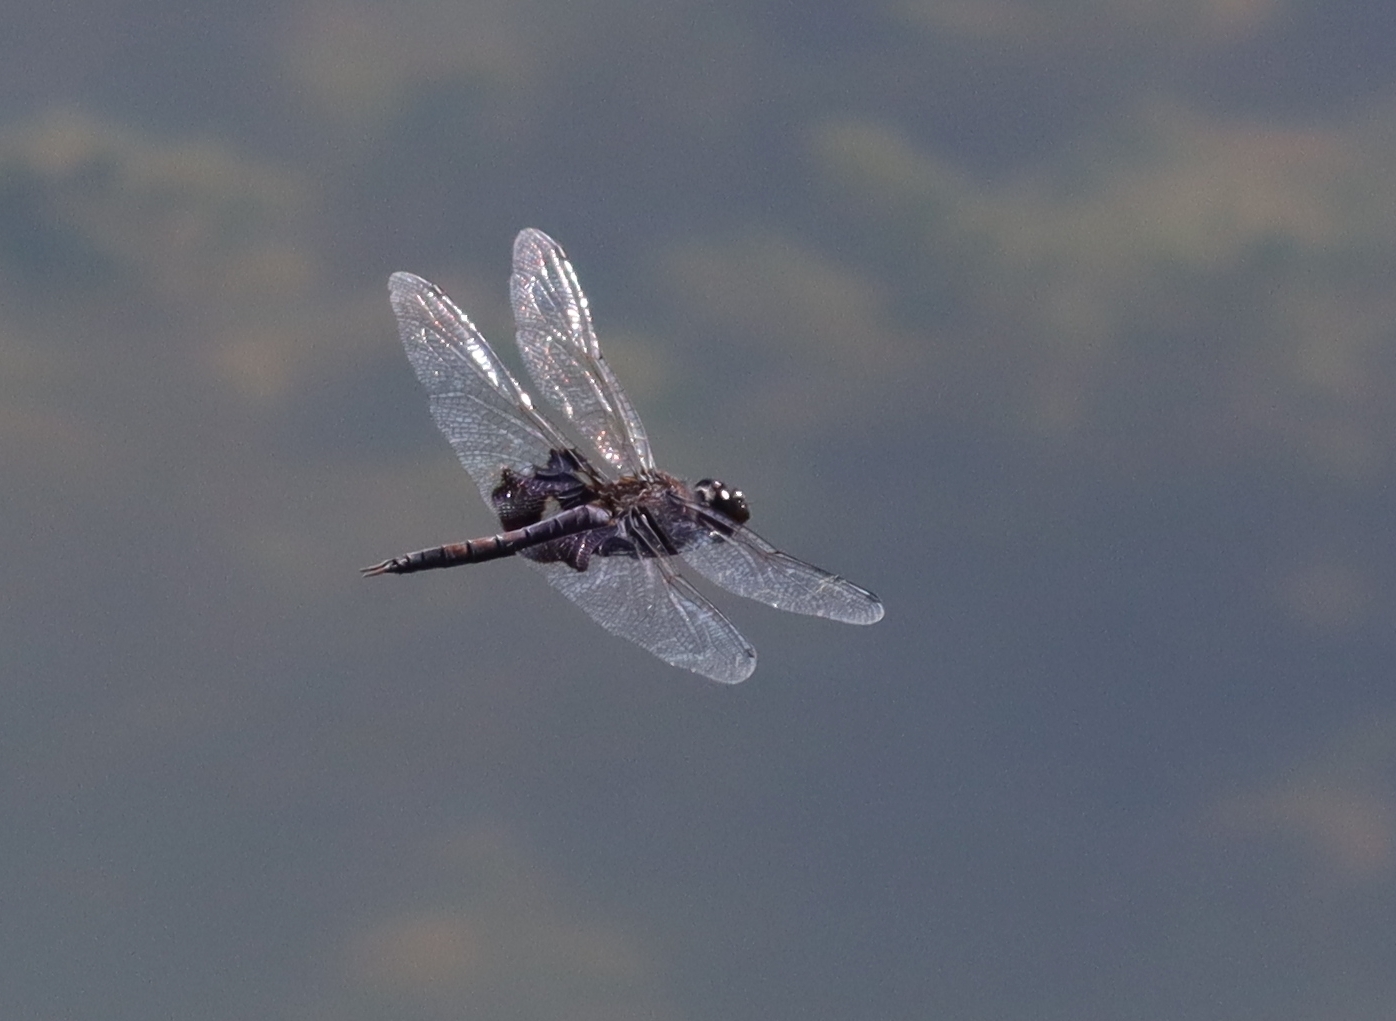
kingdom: Animalia
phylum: Arthropoda
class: Insecta
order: Odonata
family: Libellulidae
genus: Tramea
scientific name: Tramea lacerata
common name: Black saddlebags
